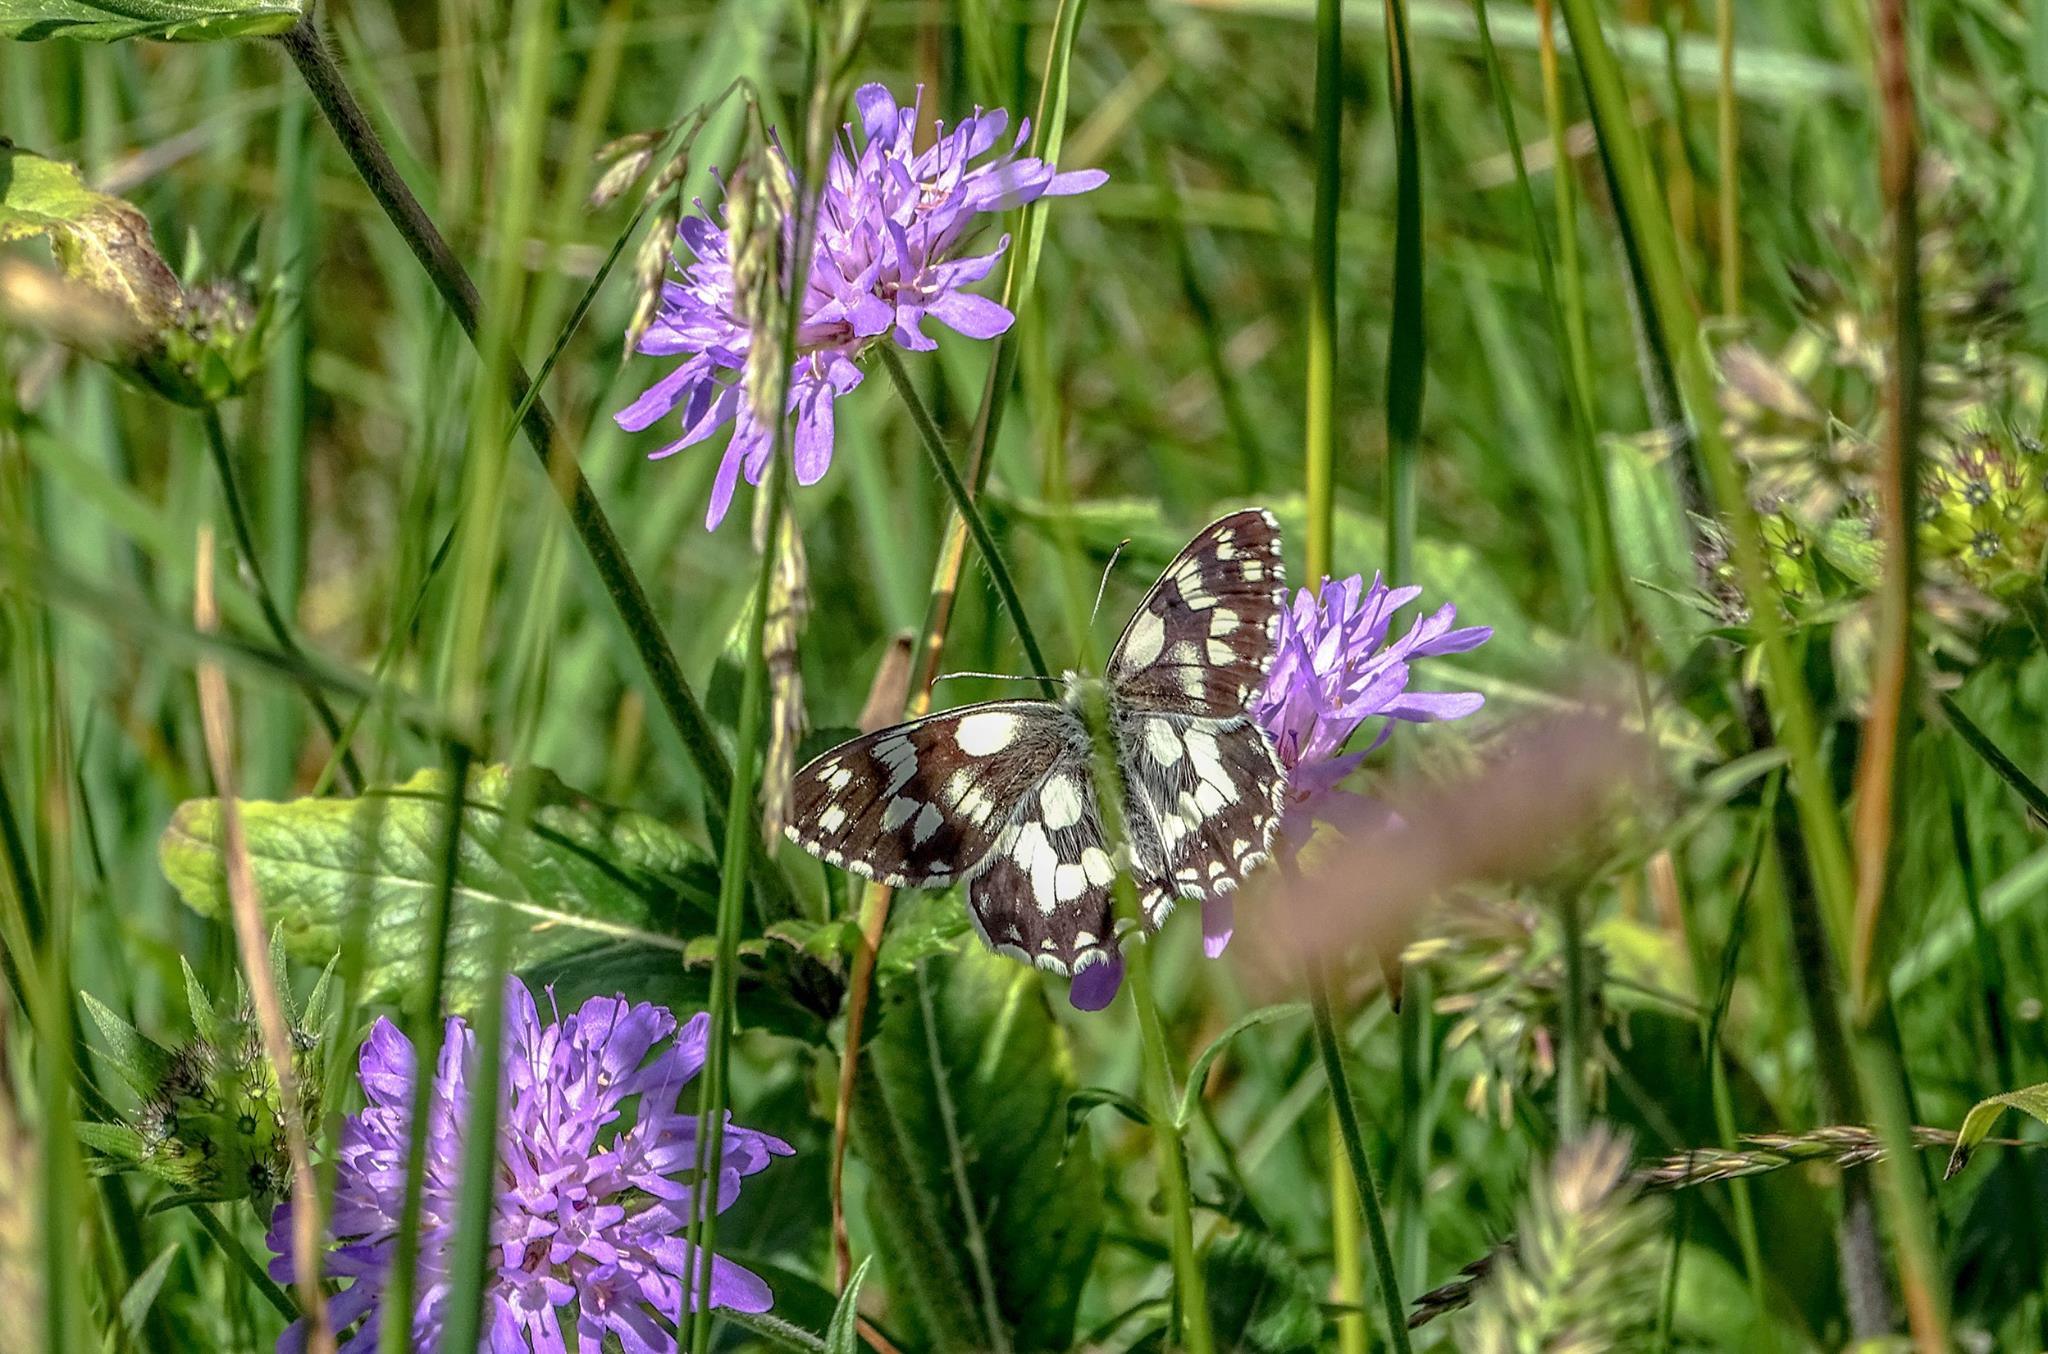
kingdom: Animalia
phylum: Arthropoda
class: Insecta
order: Lepidoptera
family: Nymphalidae
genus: Melanargia
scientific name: Melanargia galathea
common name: Marbled white
